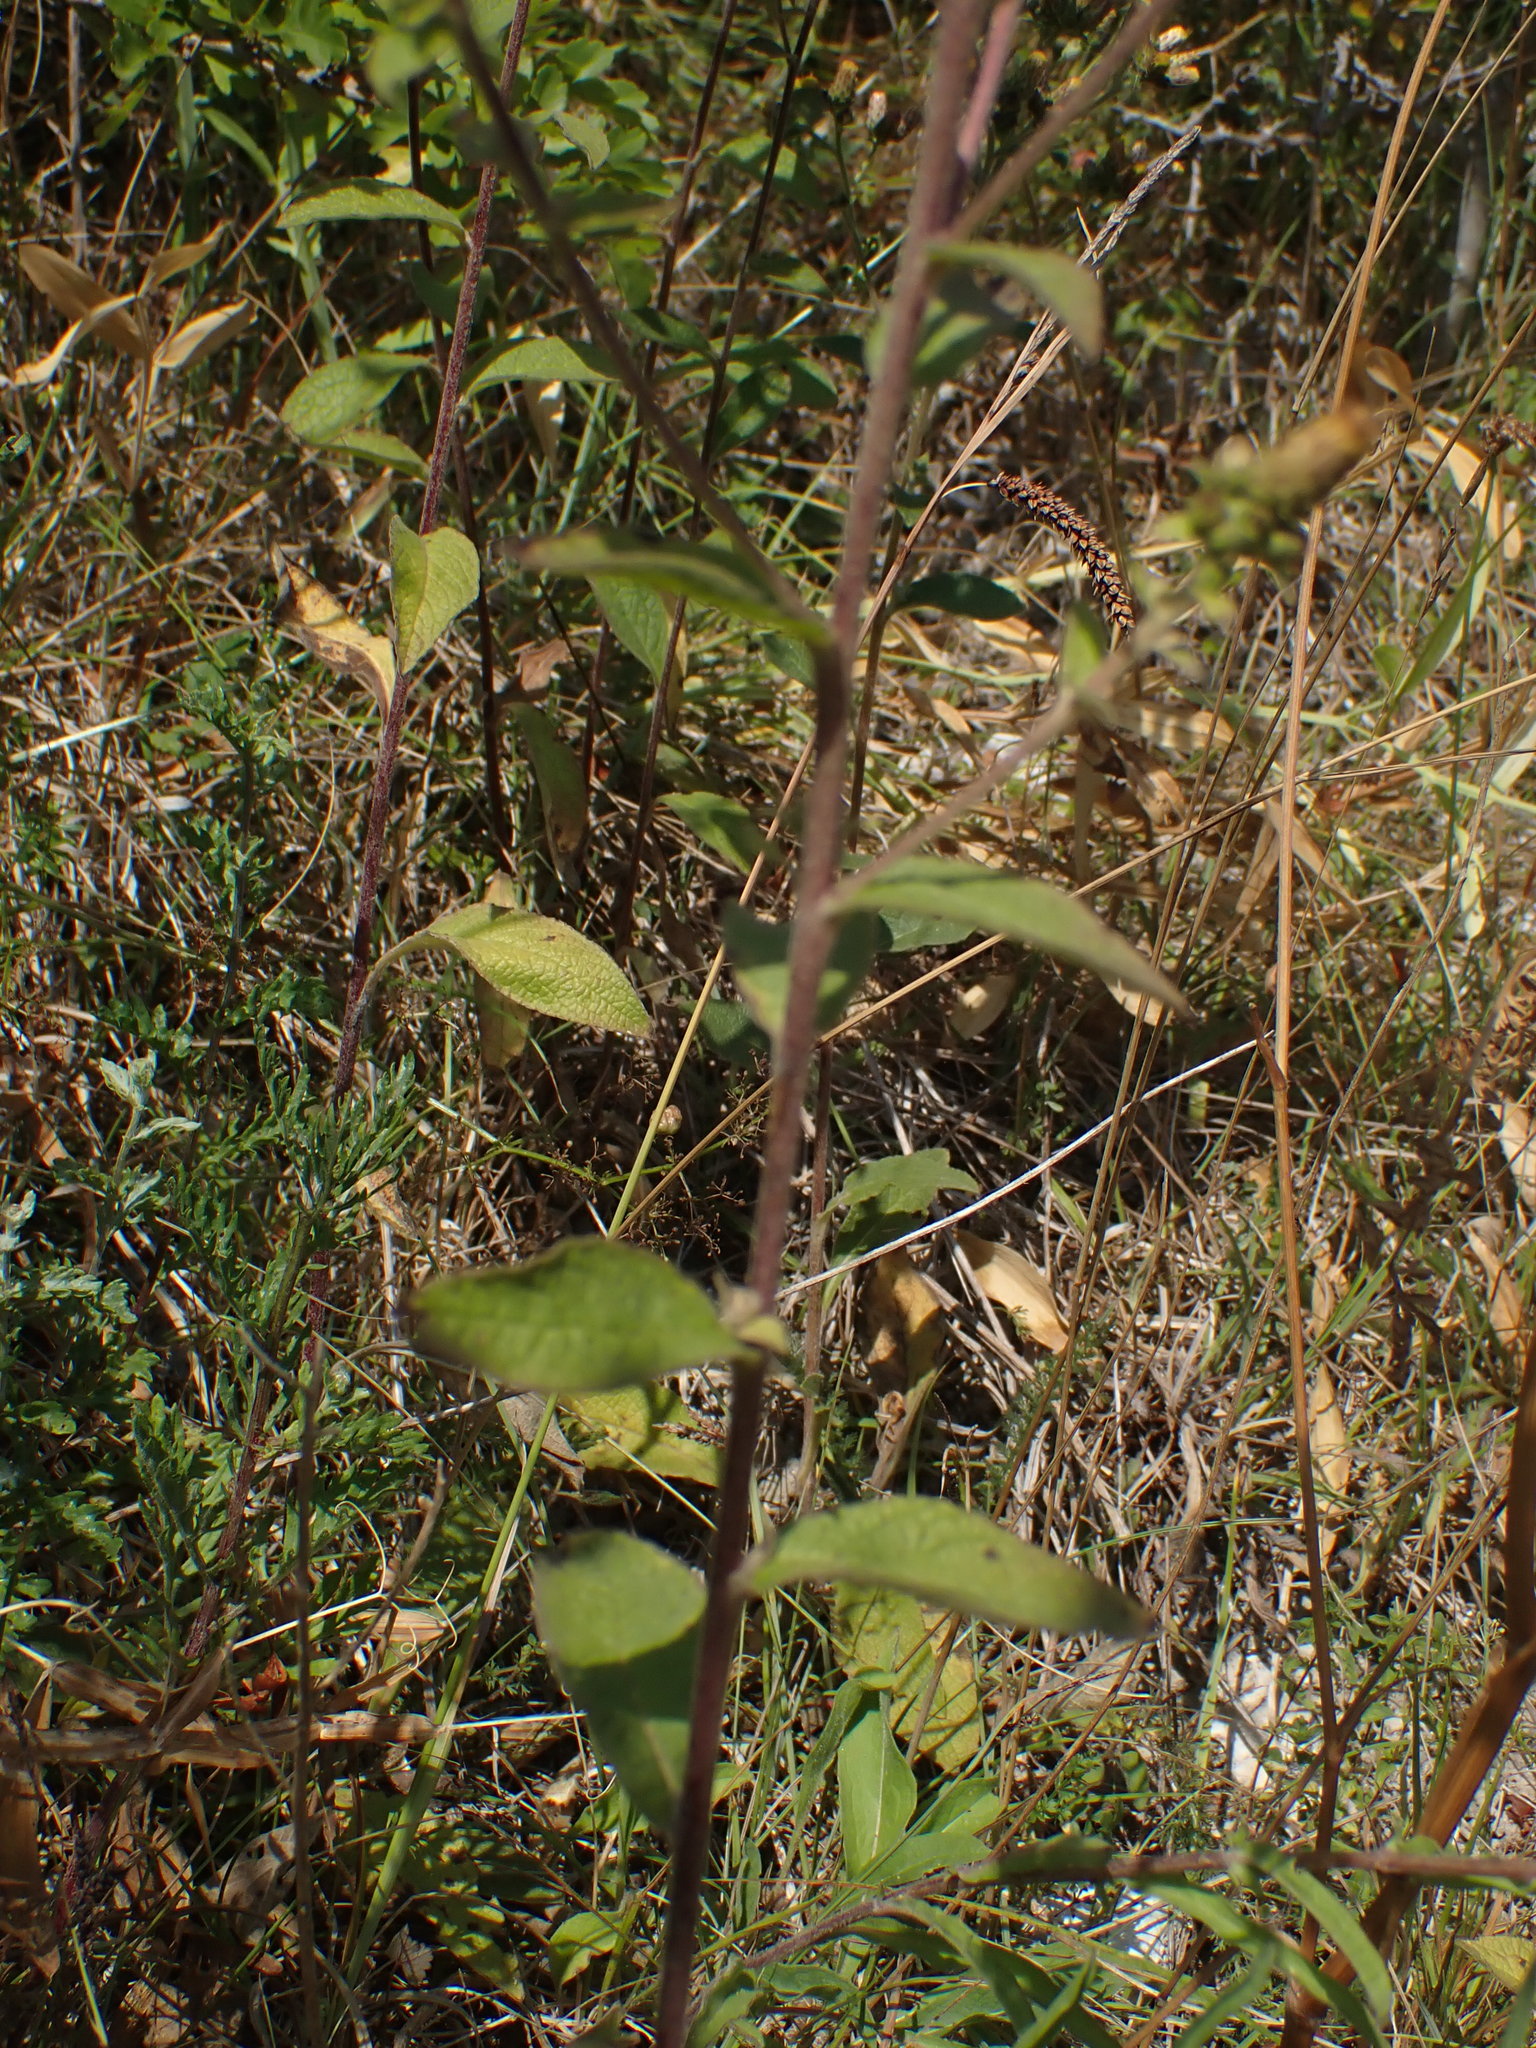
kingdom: Plantae
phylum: Tracheophyta
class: Magnoliopsida
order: Asterales
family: Asteraceae
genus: Pentanema
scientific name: Pentanema squarrosum
